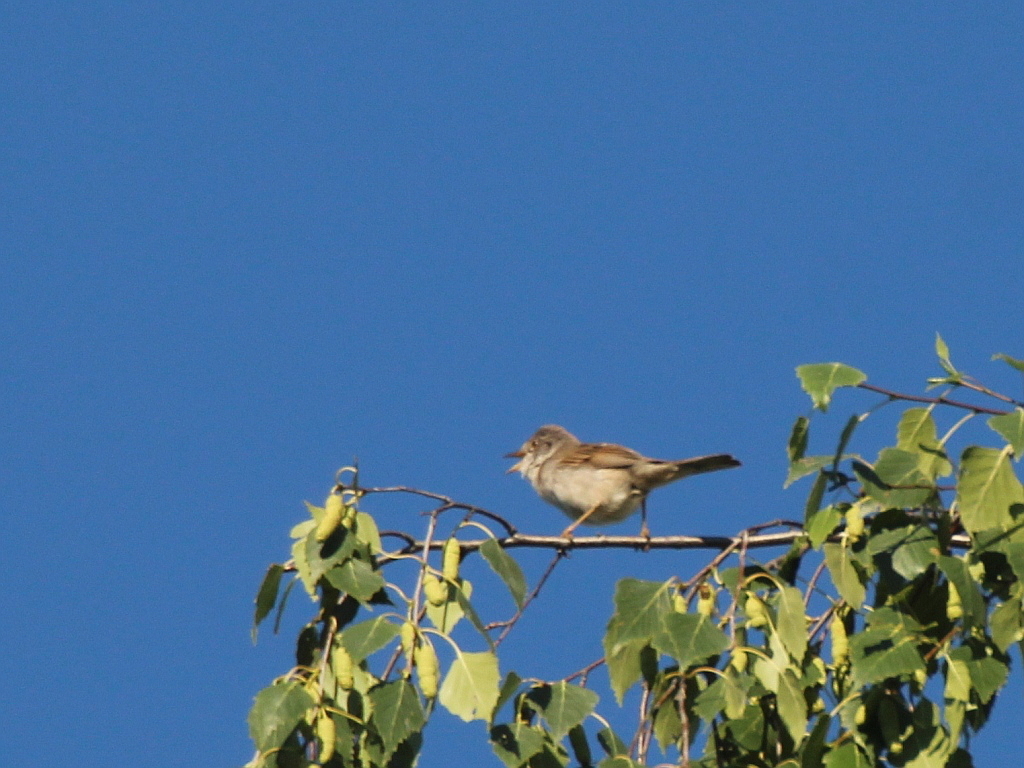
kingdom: Animalia
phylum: Chordata
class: Aves
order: Passeriformes
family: Sylviidae
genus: Sylvia
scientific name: Sylvia communis
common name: Common whitethroat
